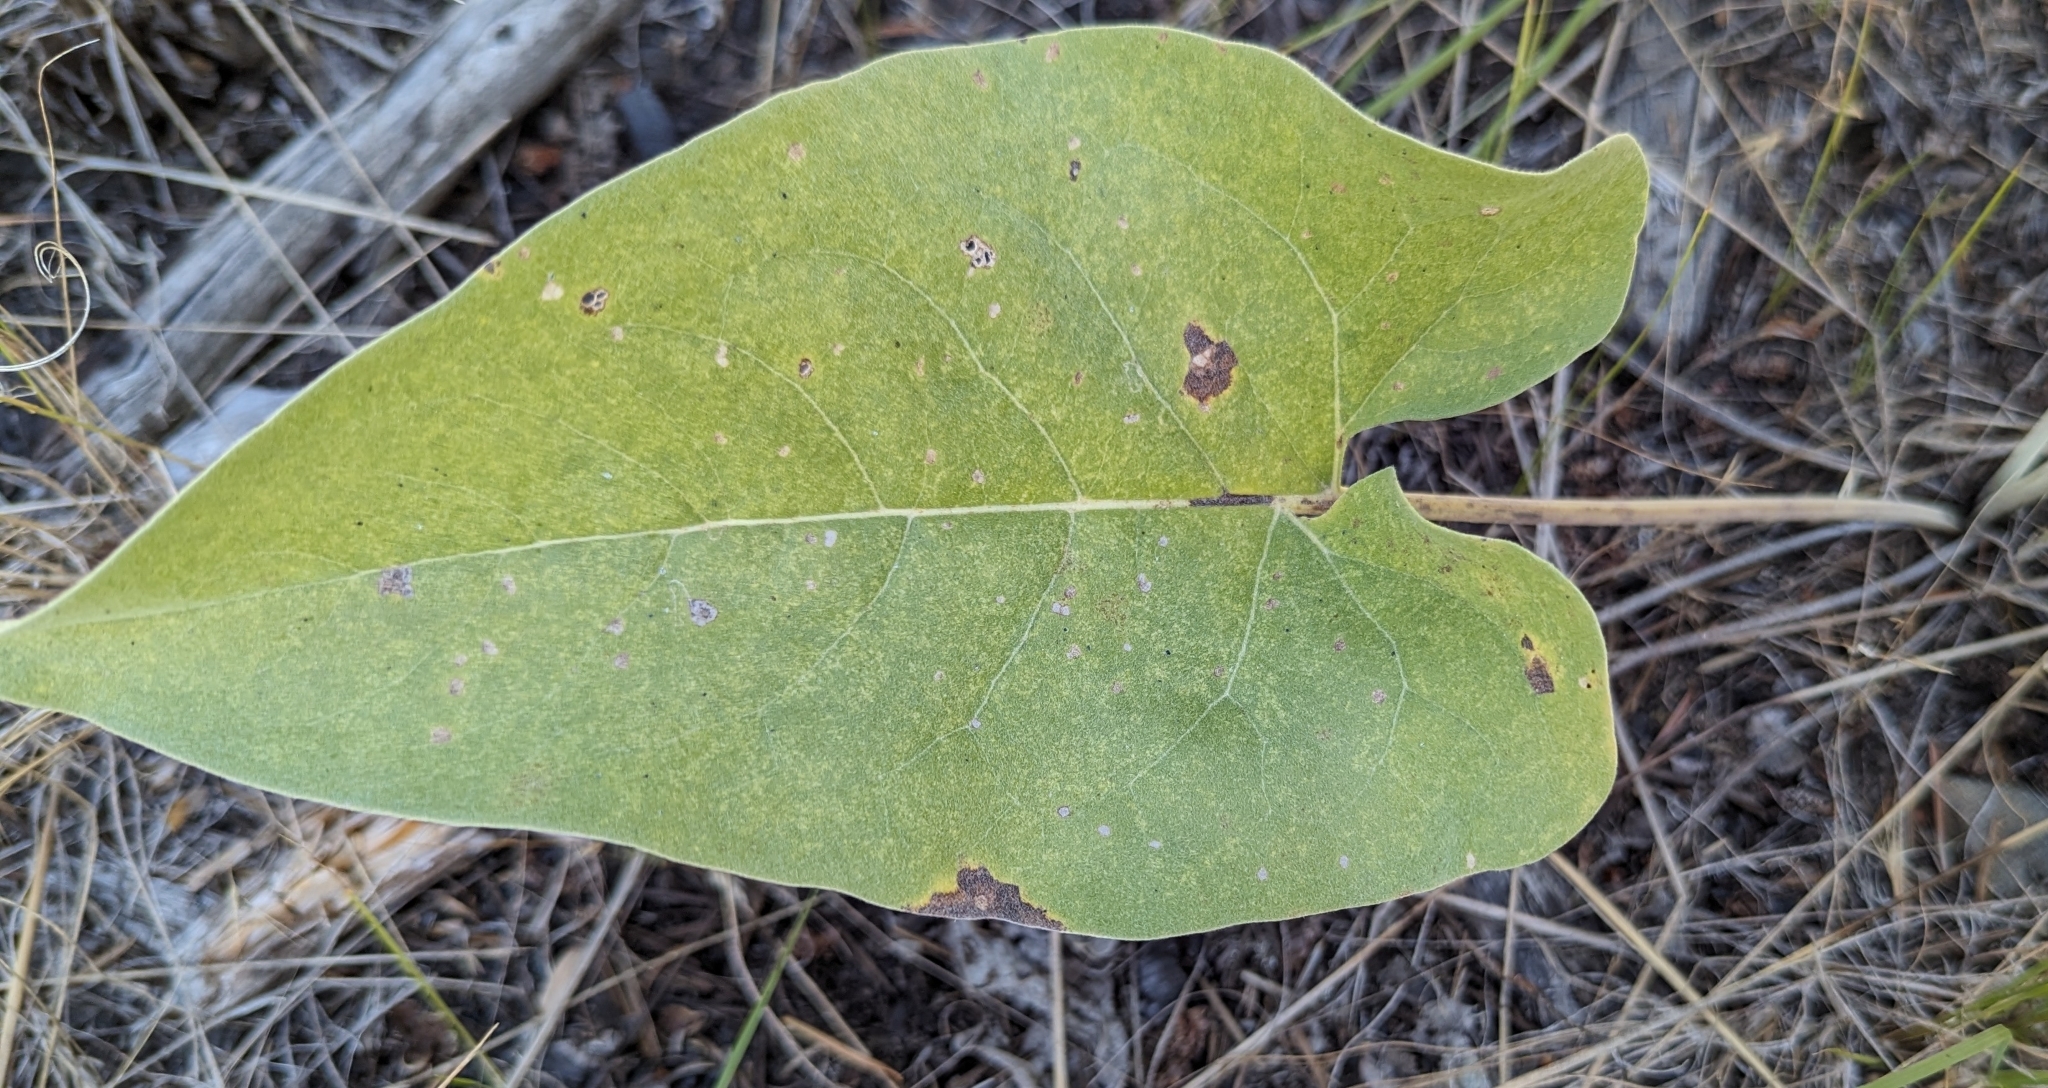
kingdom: Plantae
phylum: Tracheophyta
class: Magnoliopsida
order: Asterales
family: Asteraceae
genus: Wyethia
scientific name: Wyethia sagittata
